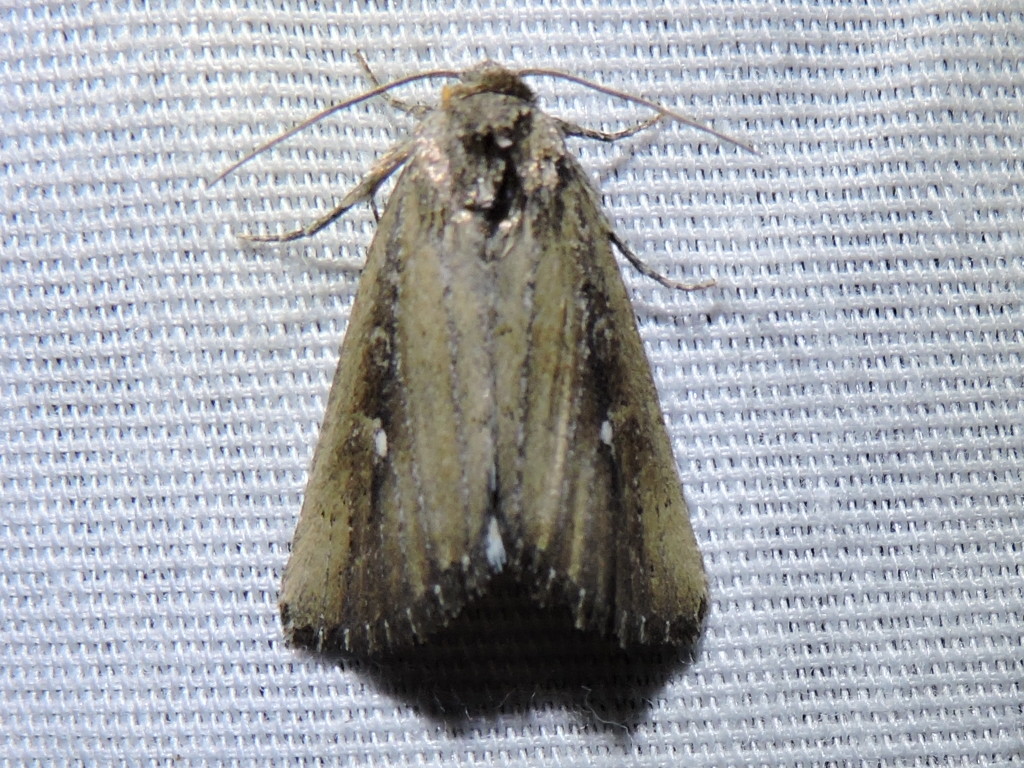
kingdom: Animalia
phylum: Arthropoda
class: Insecta
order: Lepidoptera
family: Noctuidae
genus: Condica
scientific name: Condica videns
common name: White-dotted groundling
